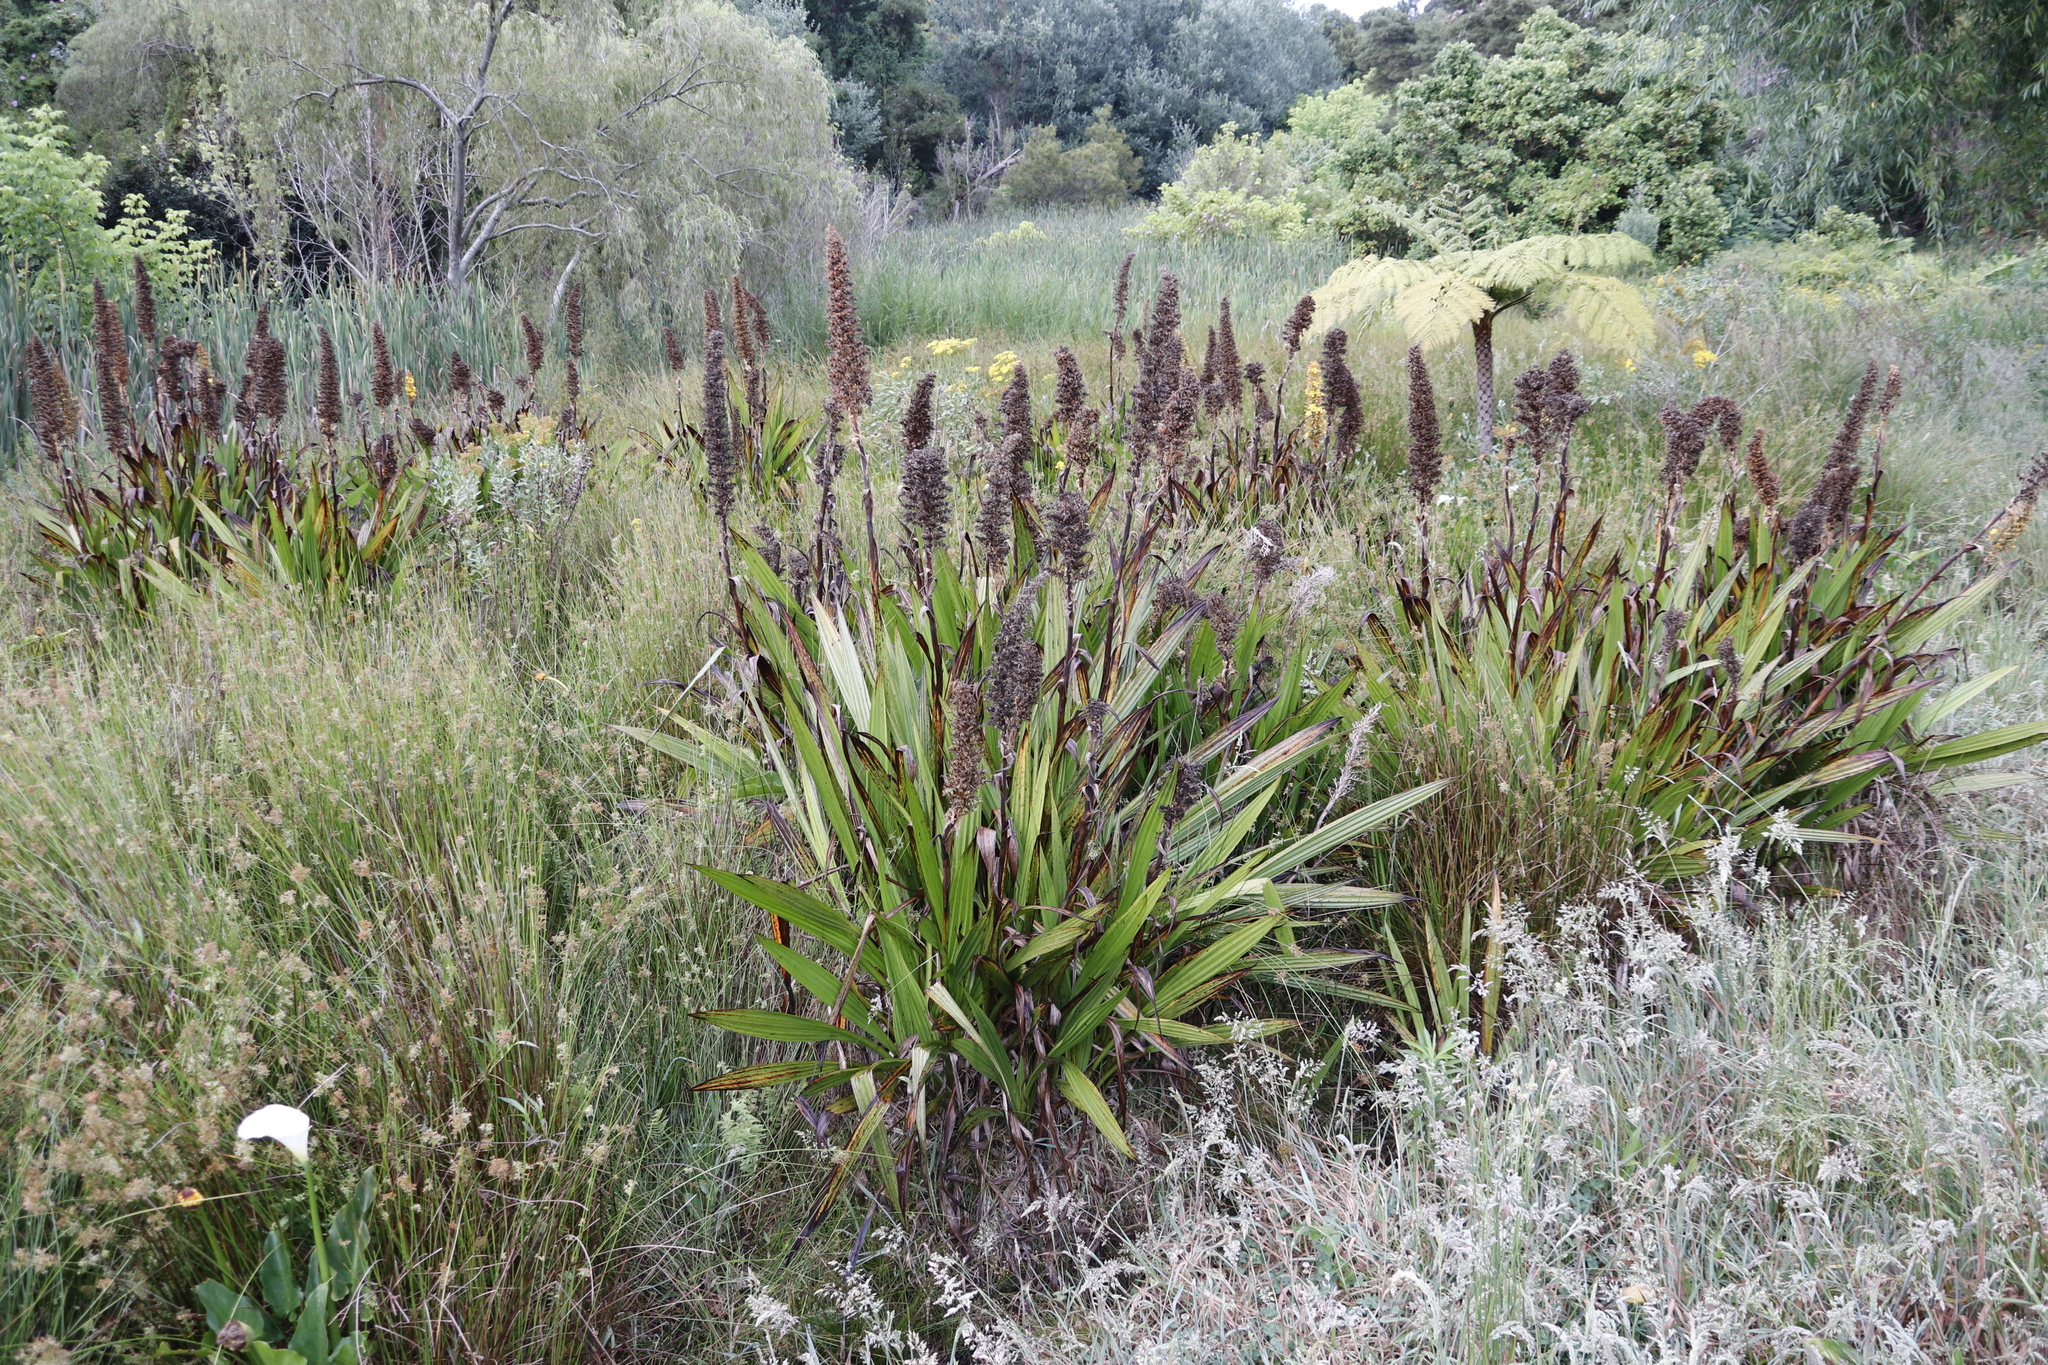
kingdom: Plantae
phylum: Tracheophyta
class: Liliopsida
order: Commelinales
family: Haemodoraceae
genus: Wachendorfia
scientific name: Wachendorfia thyrsiflora
